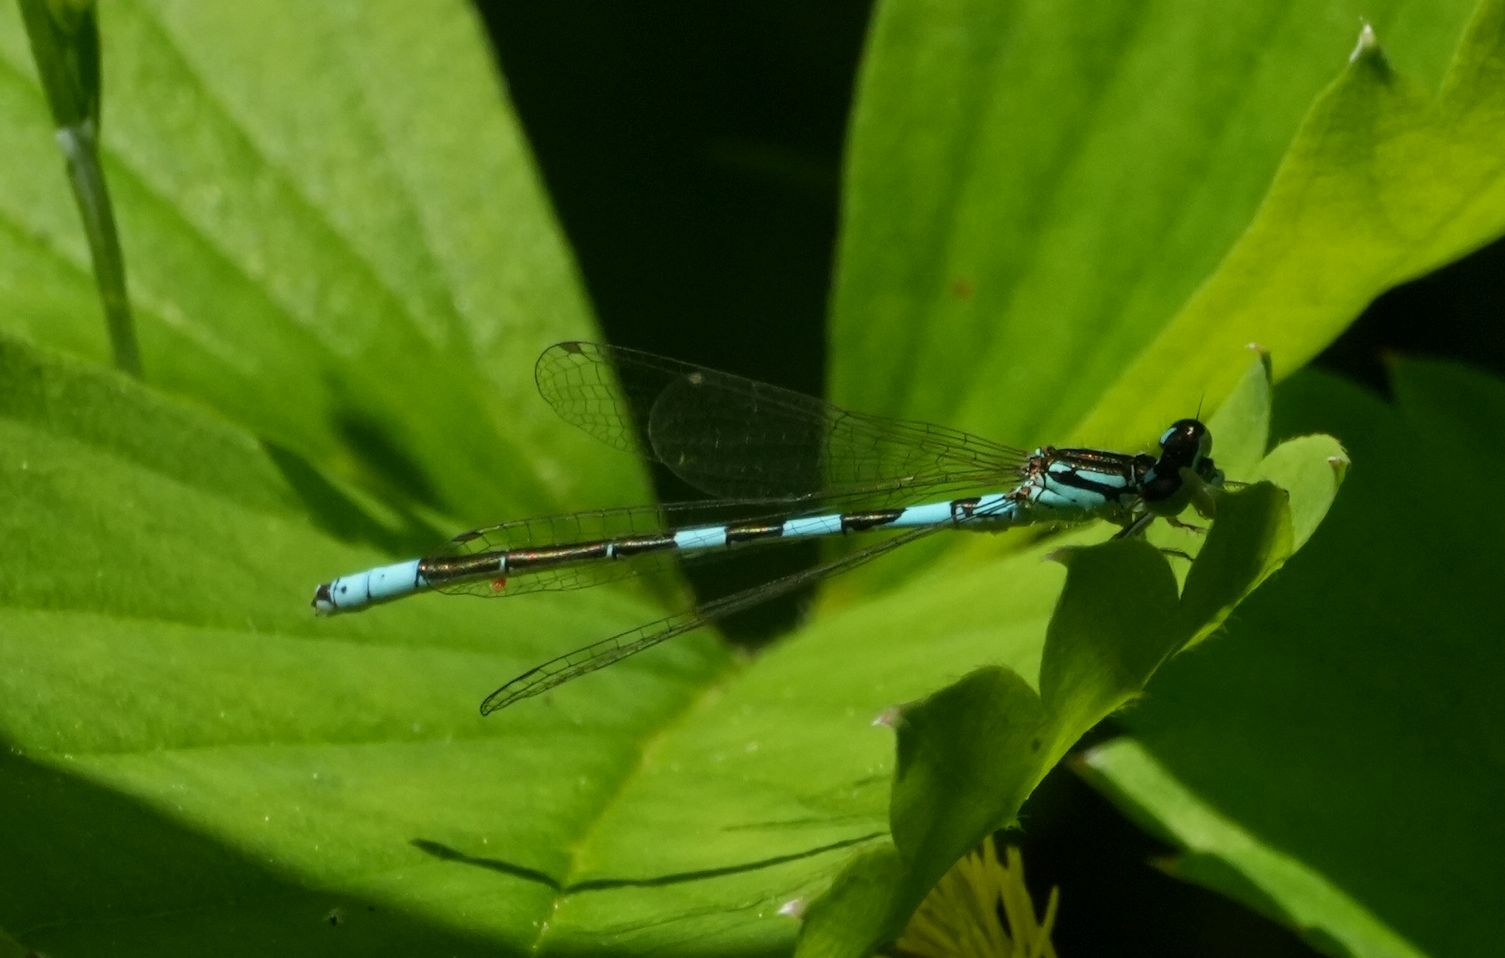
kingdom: Animalia
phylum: Arthropoda
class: Insecta
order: Odonata
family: Coenagrionidae
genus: Coenagrion
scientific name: Coenagrion resolutum
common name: Taiga bluet
